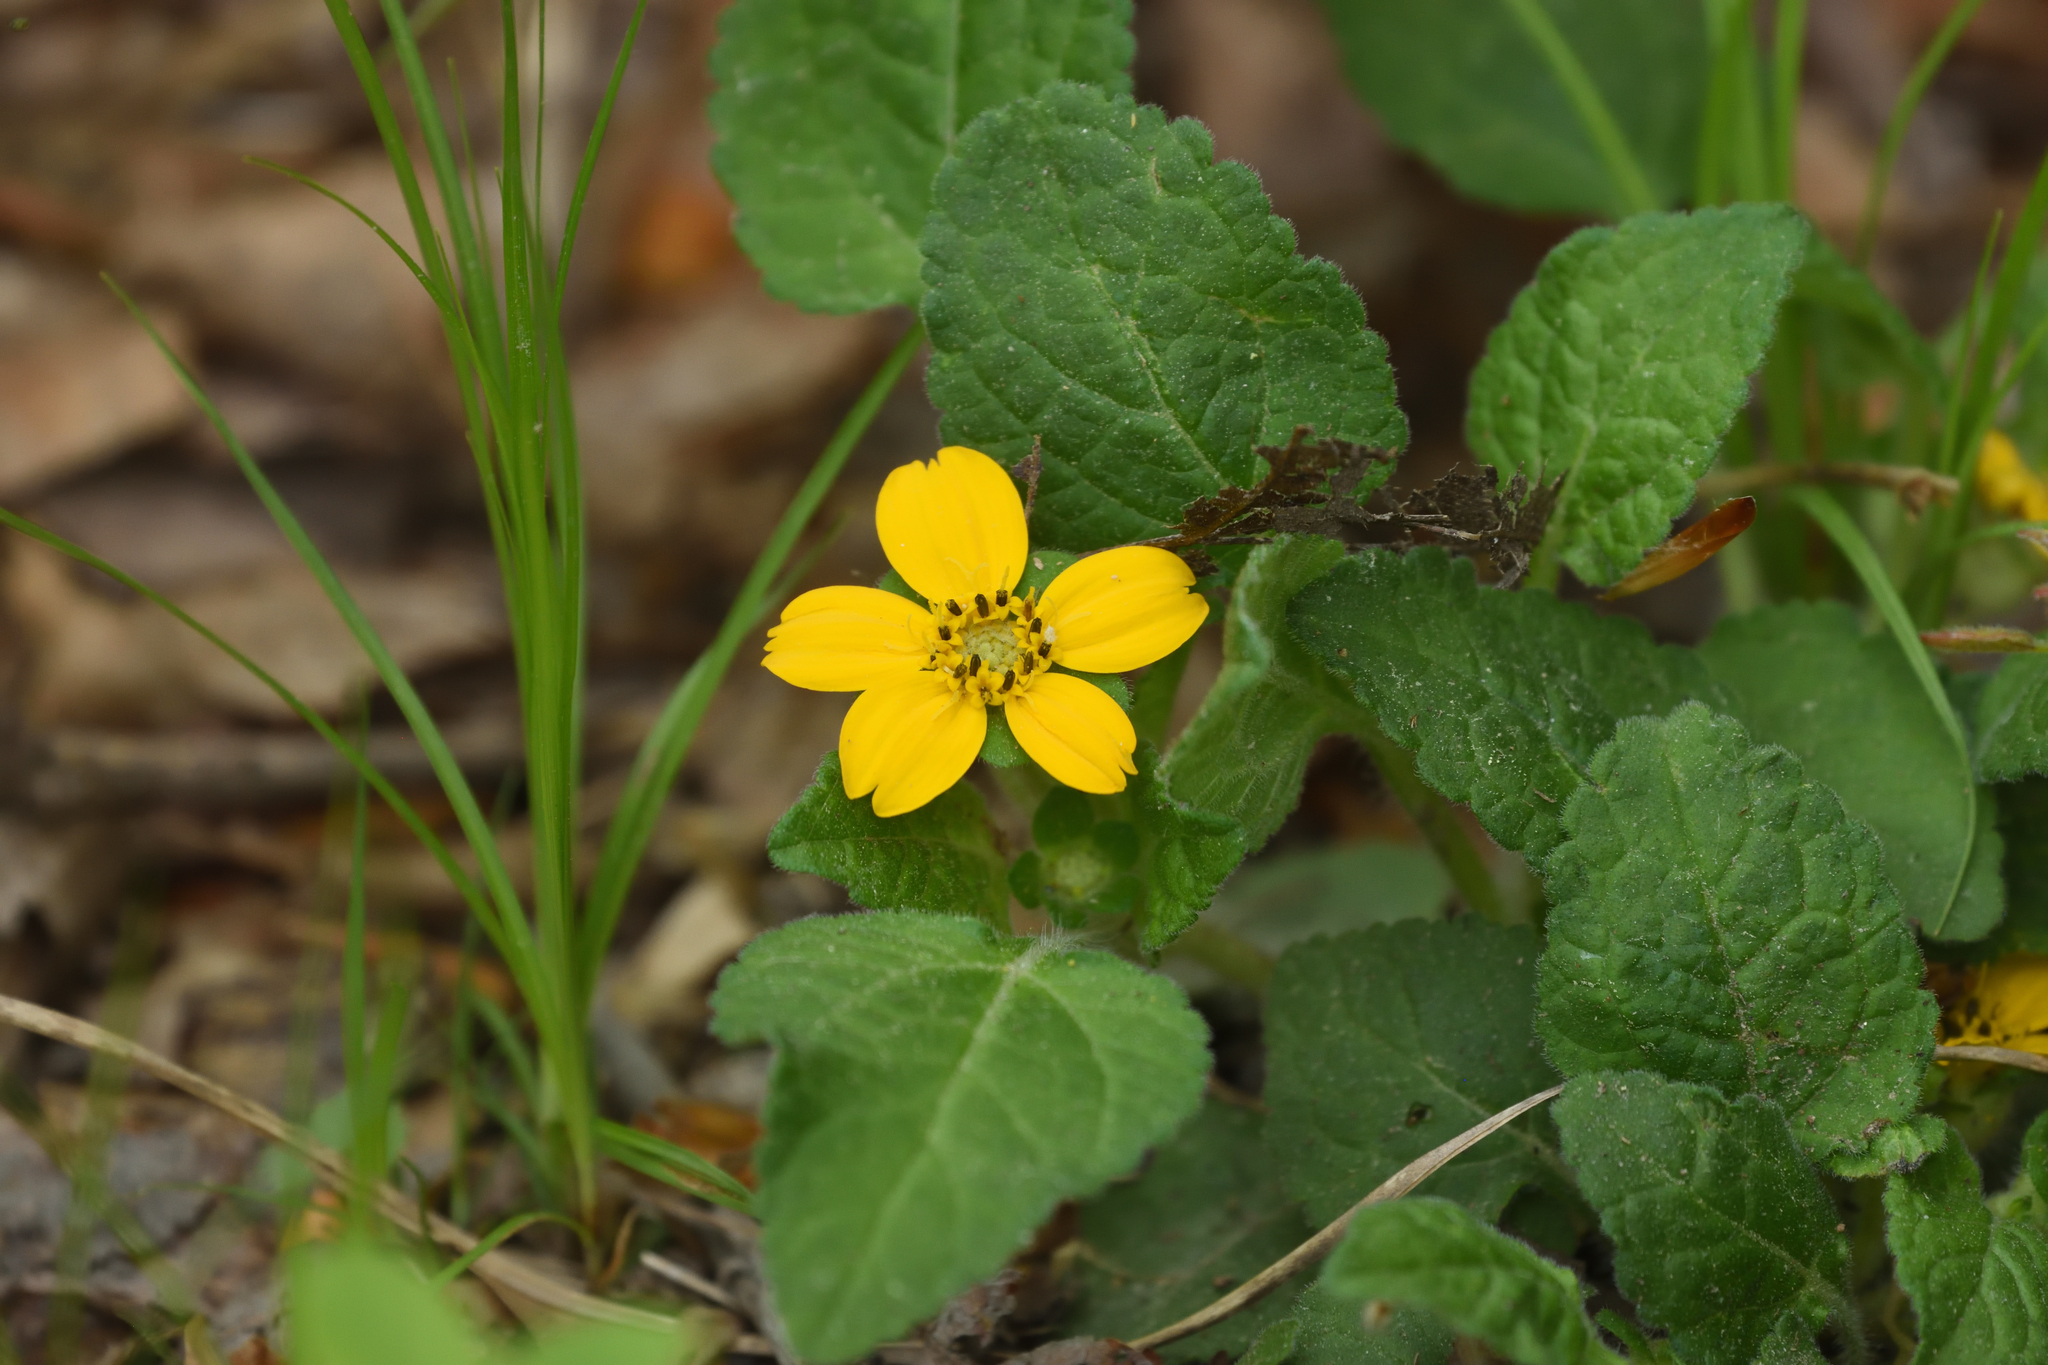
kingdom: Plantae
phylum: Tracheophyta
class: Magnoliopsida
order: Asterales
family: Asteraceae
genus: Chrysogonum
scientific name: Chrysogonum virginianum
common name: Golden-knee
